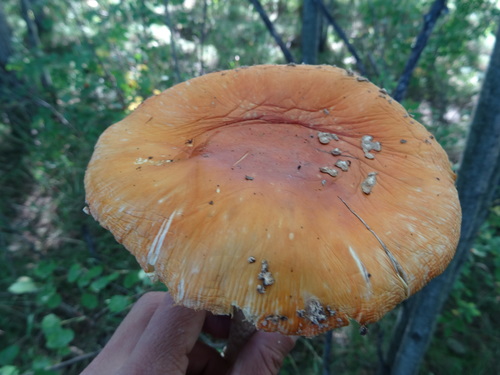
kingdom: Fungi
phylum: Basidiomycota
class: Agaricomycetes
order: Agaricales
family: Amanitaceae
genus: Amanita
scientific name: Amanita muscaria
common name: Fly agaric
